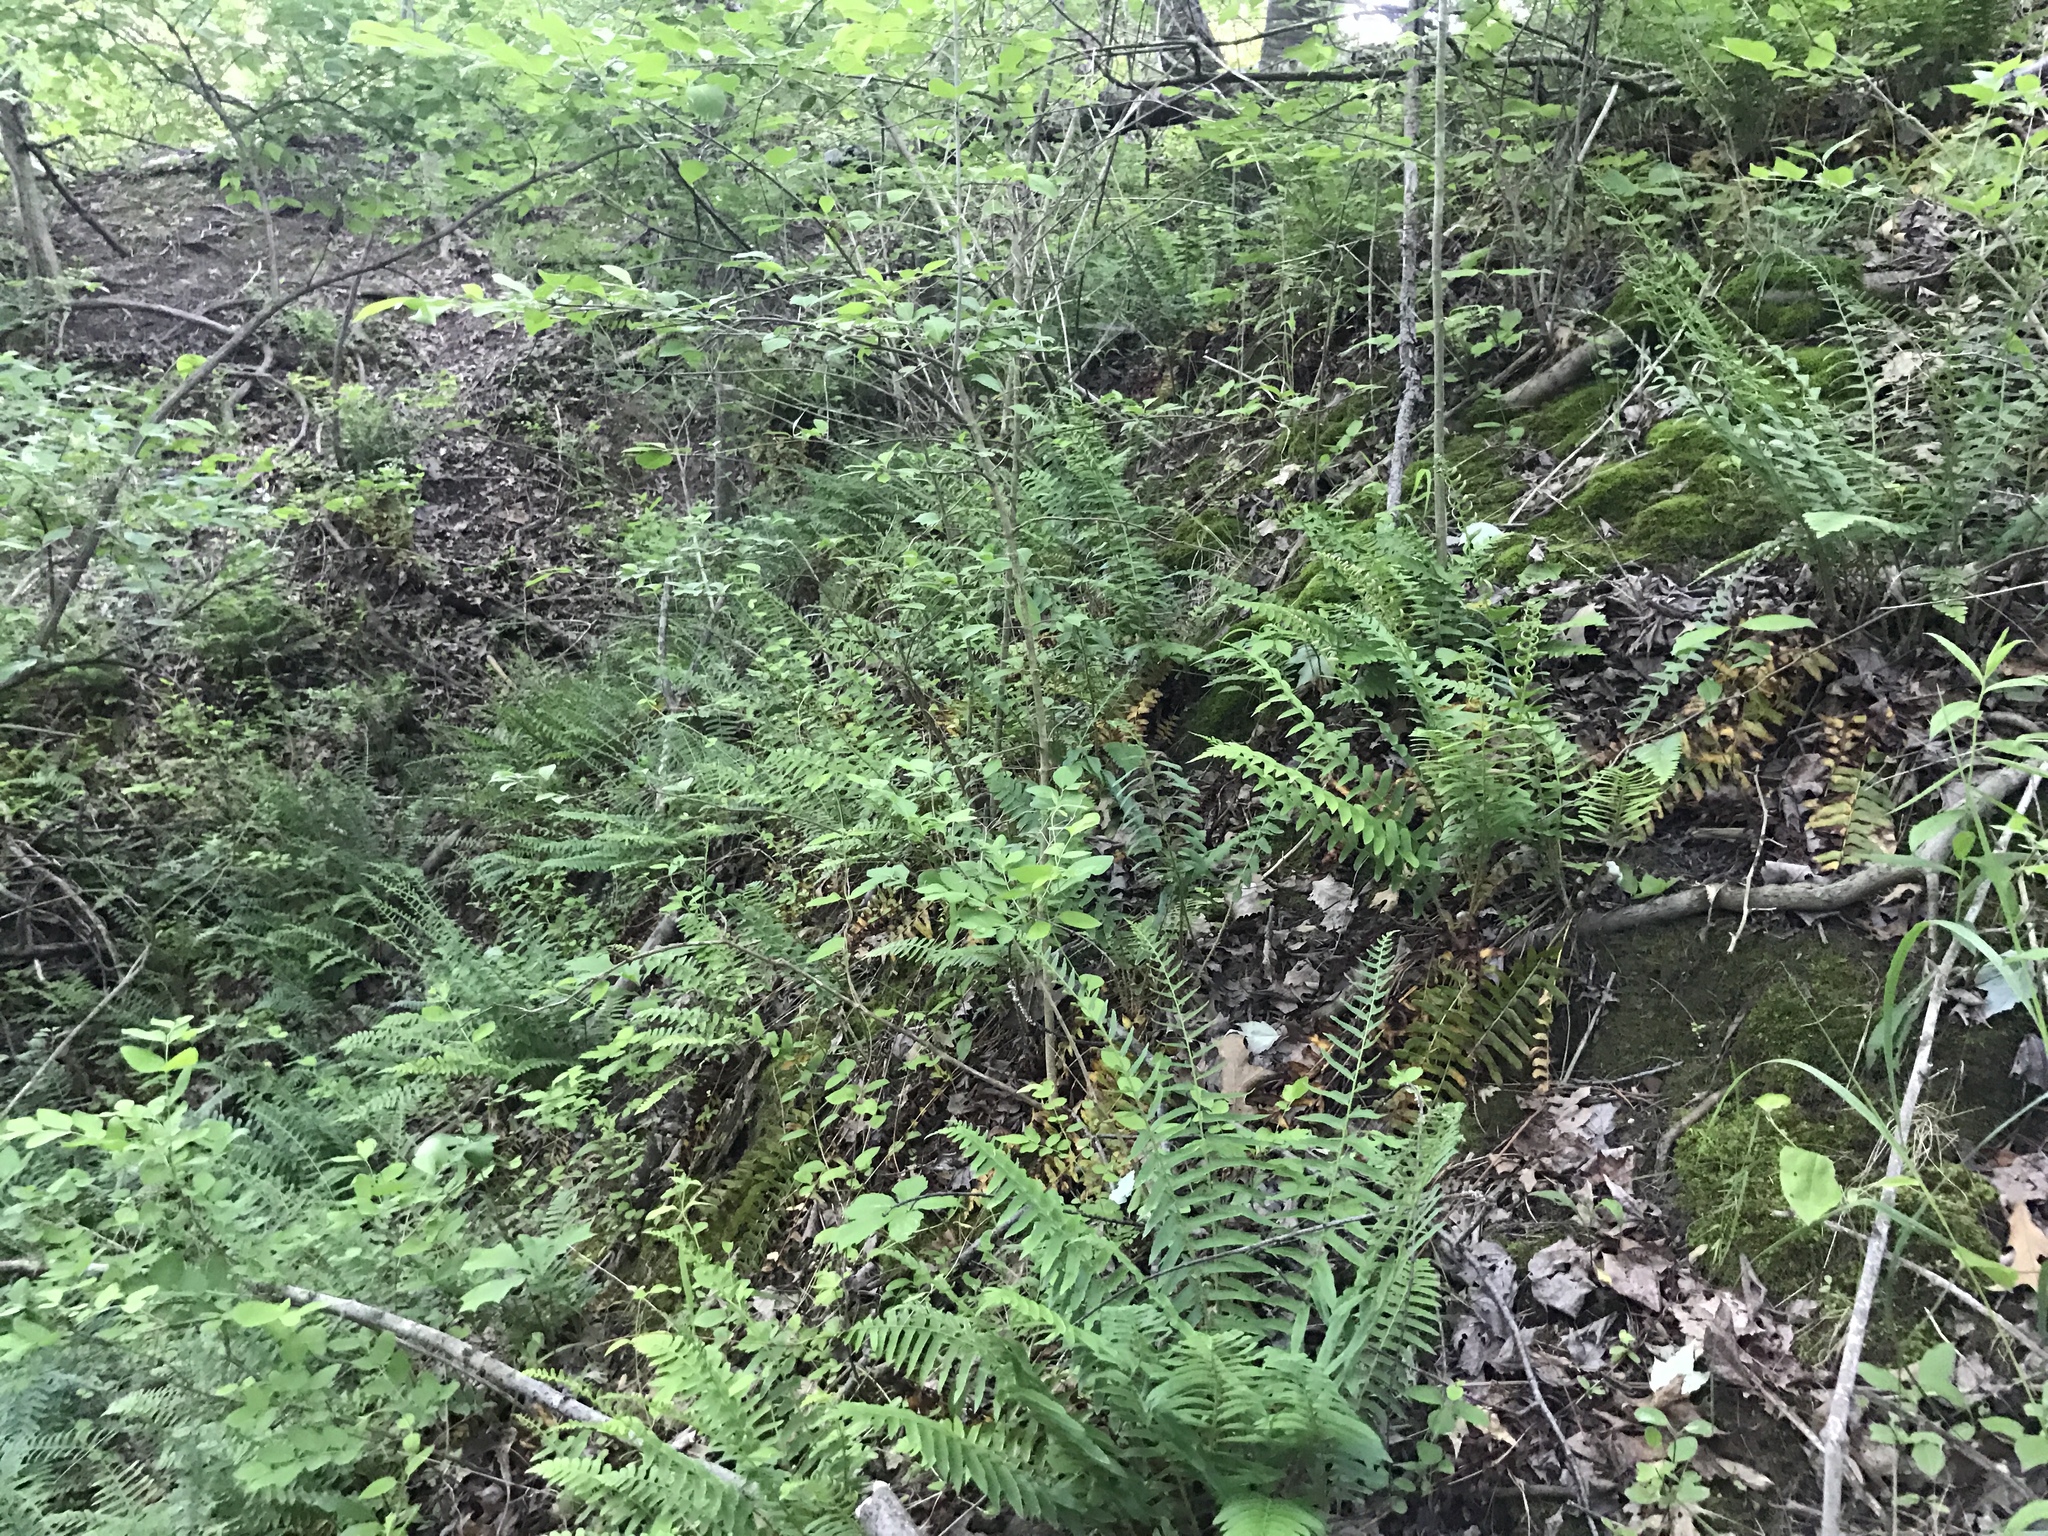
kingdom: Plantae
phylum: Tracheophyta
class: Polypodiopsida
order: Polypodiales
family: Dryopteridaceae
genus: Polystichum
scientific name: Polystichum acrostichoides
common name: Christmas fern
